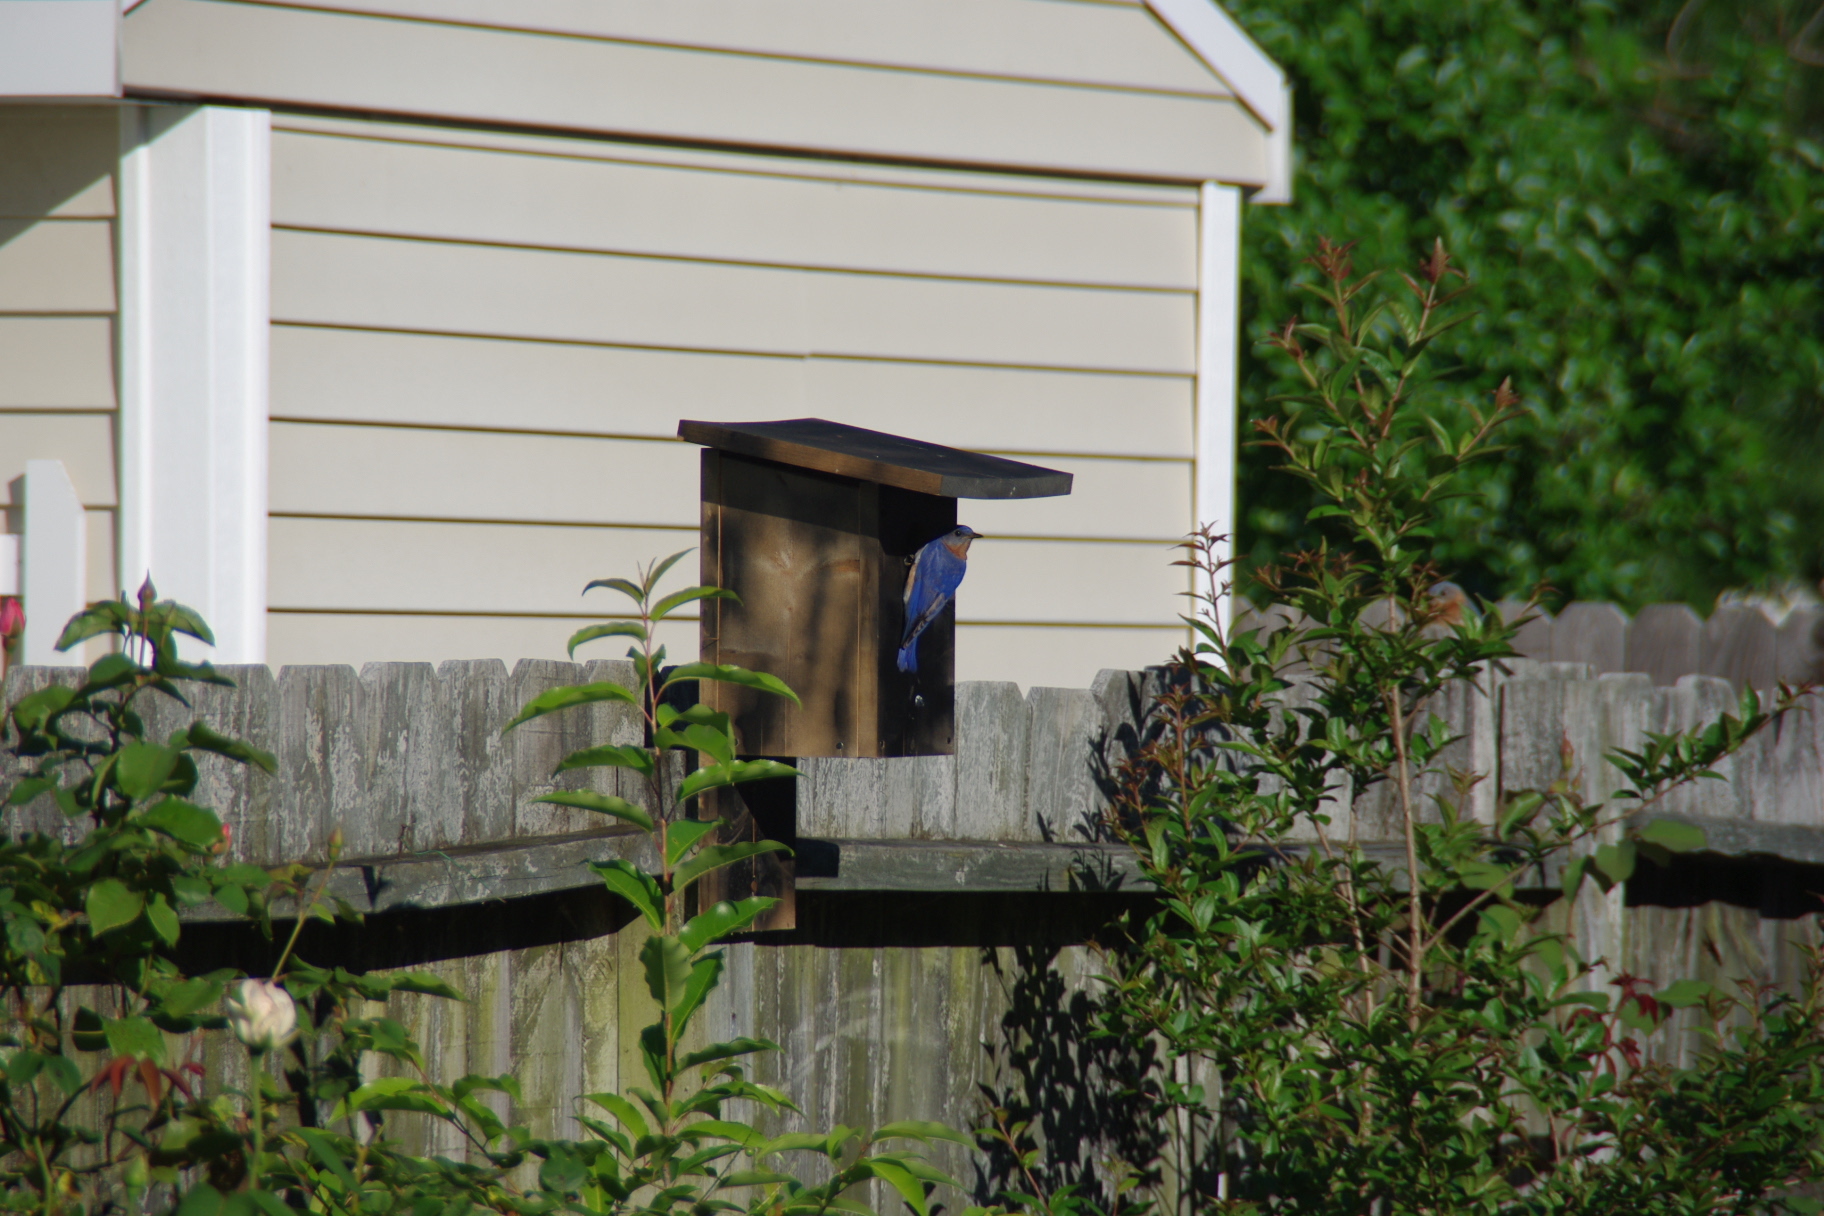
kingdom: Animalia
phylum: Chordata
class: Aves
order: Passeriformes
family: Turdidae
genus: Sialia
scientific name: Sialia sialis
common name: Eastern bluebird
